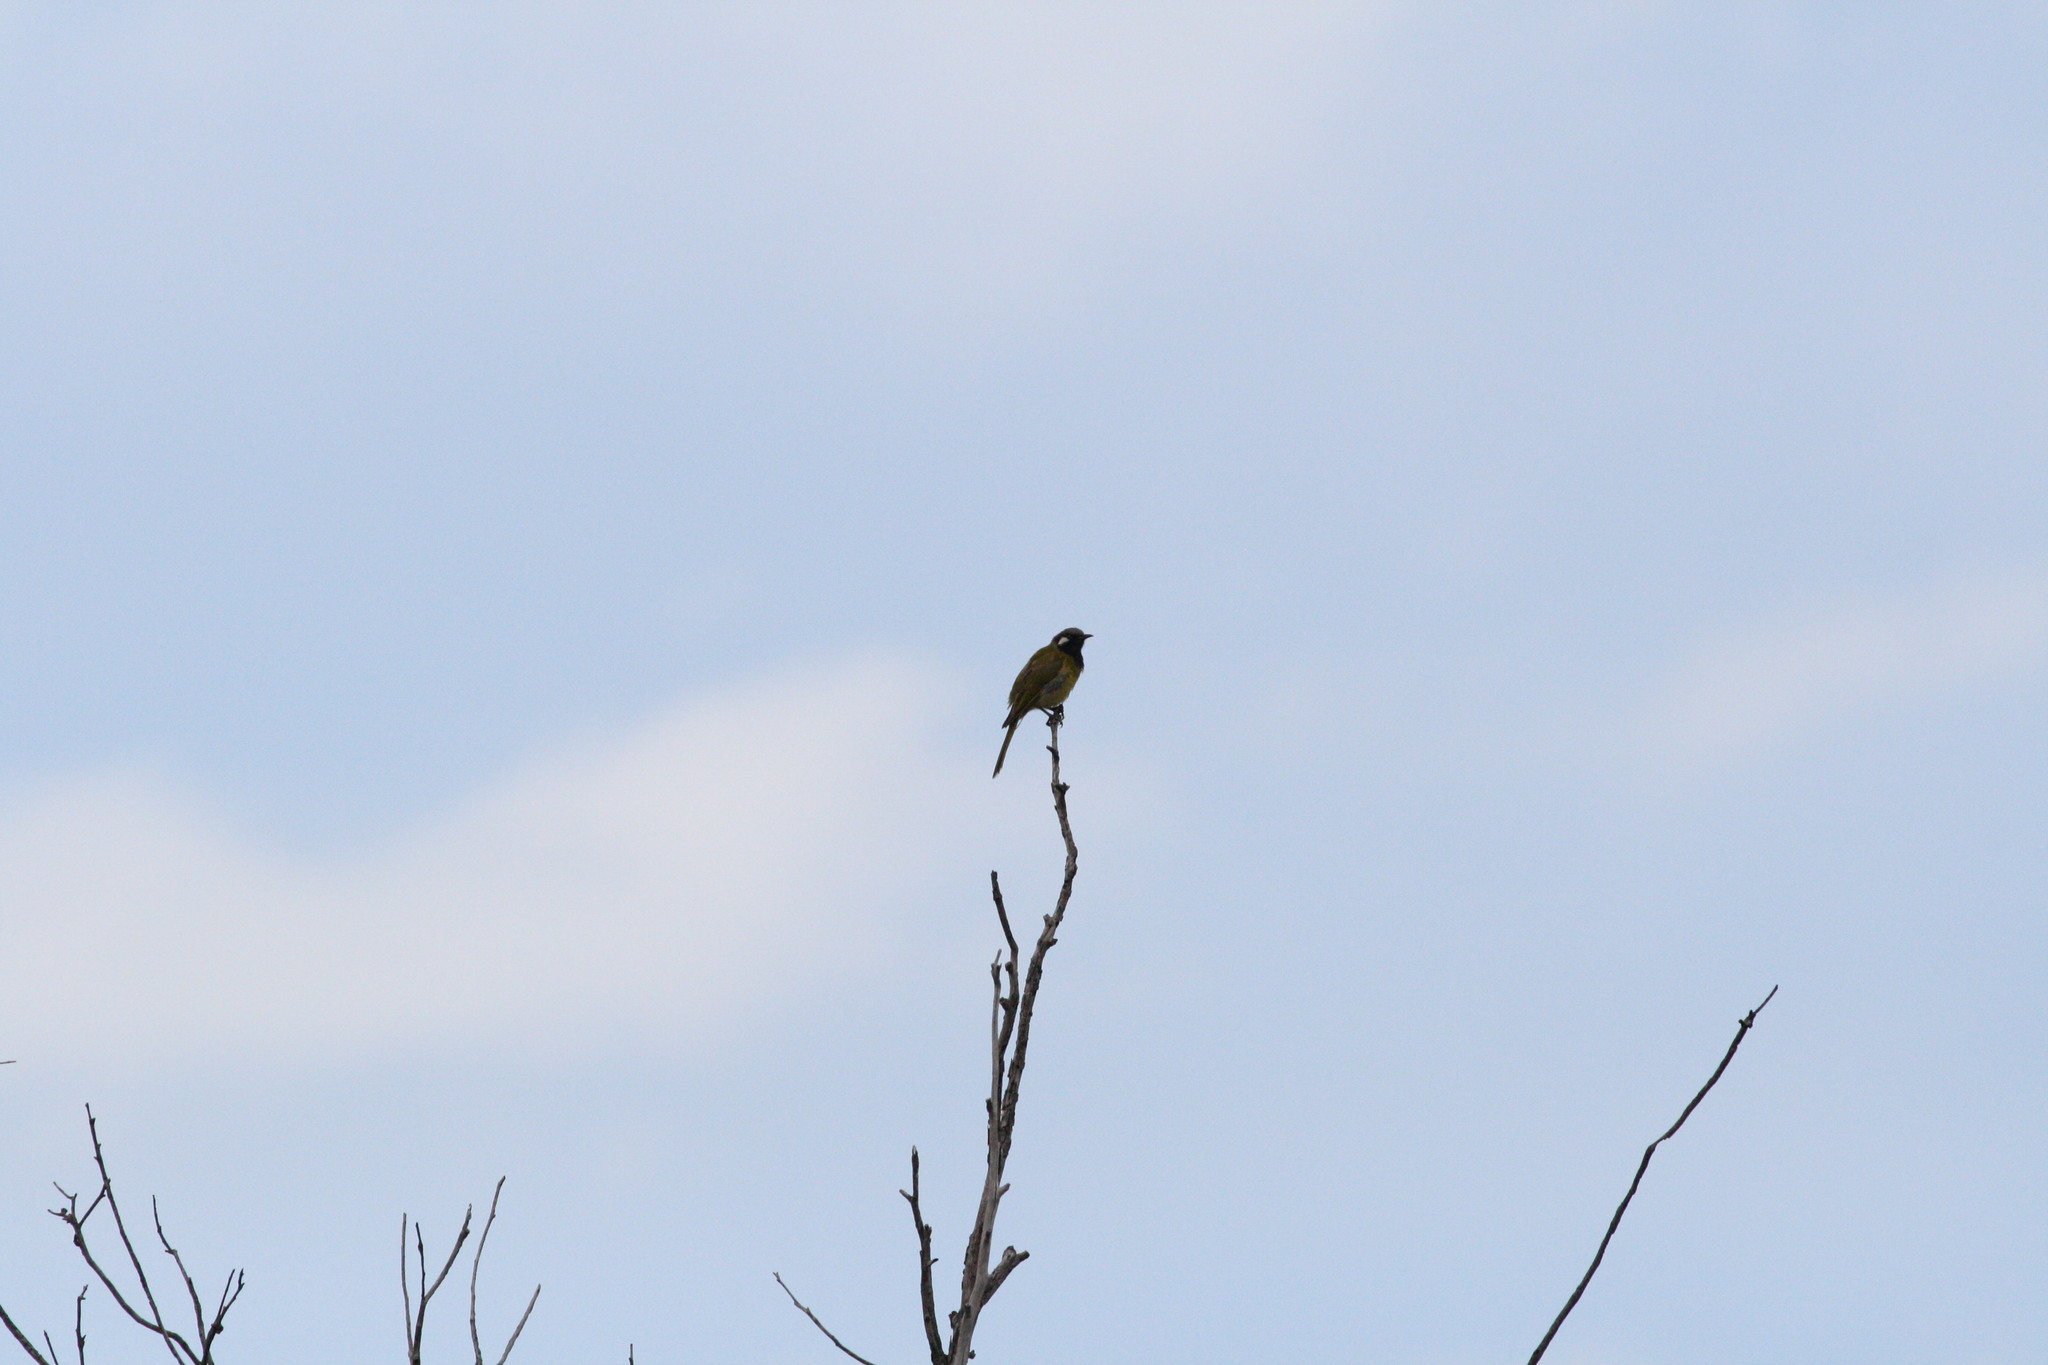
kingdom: Animalia
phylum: Chordata
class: Aves
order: Passeriformes
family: Meliphagidae
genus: Nesoptilotis
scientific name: Nesoptilotis leucotis
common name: White-eared honeyeater
